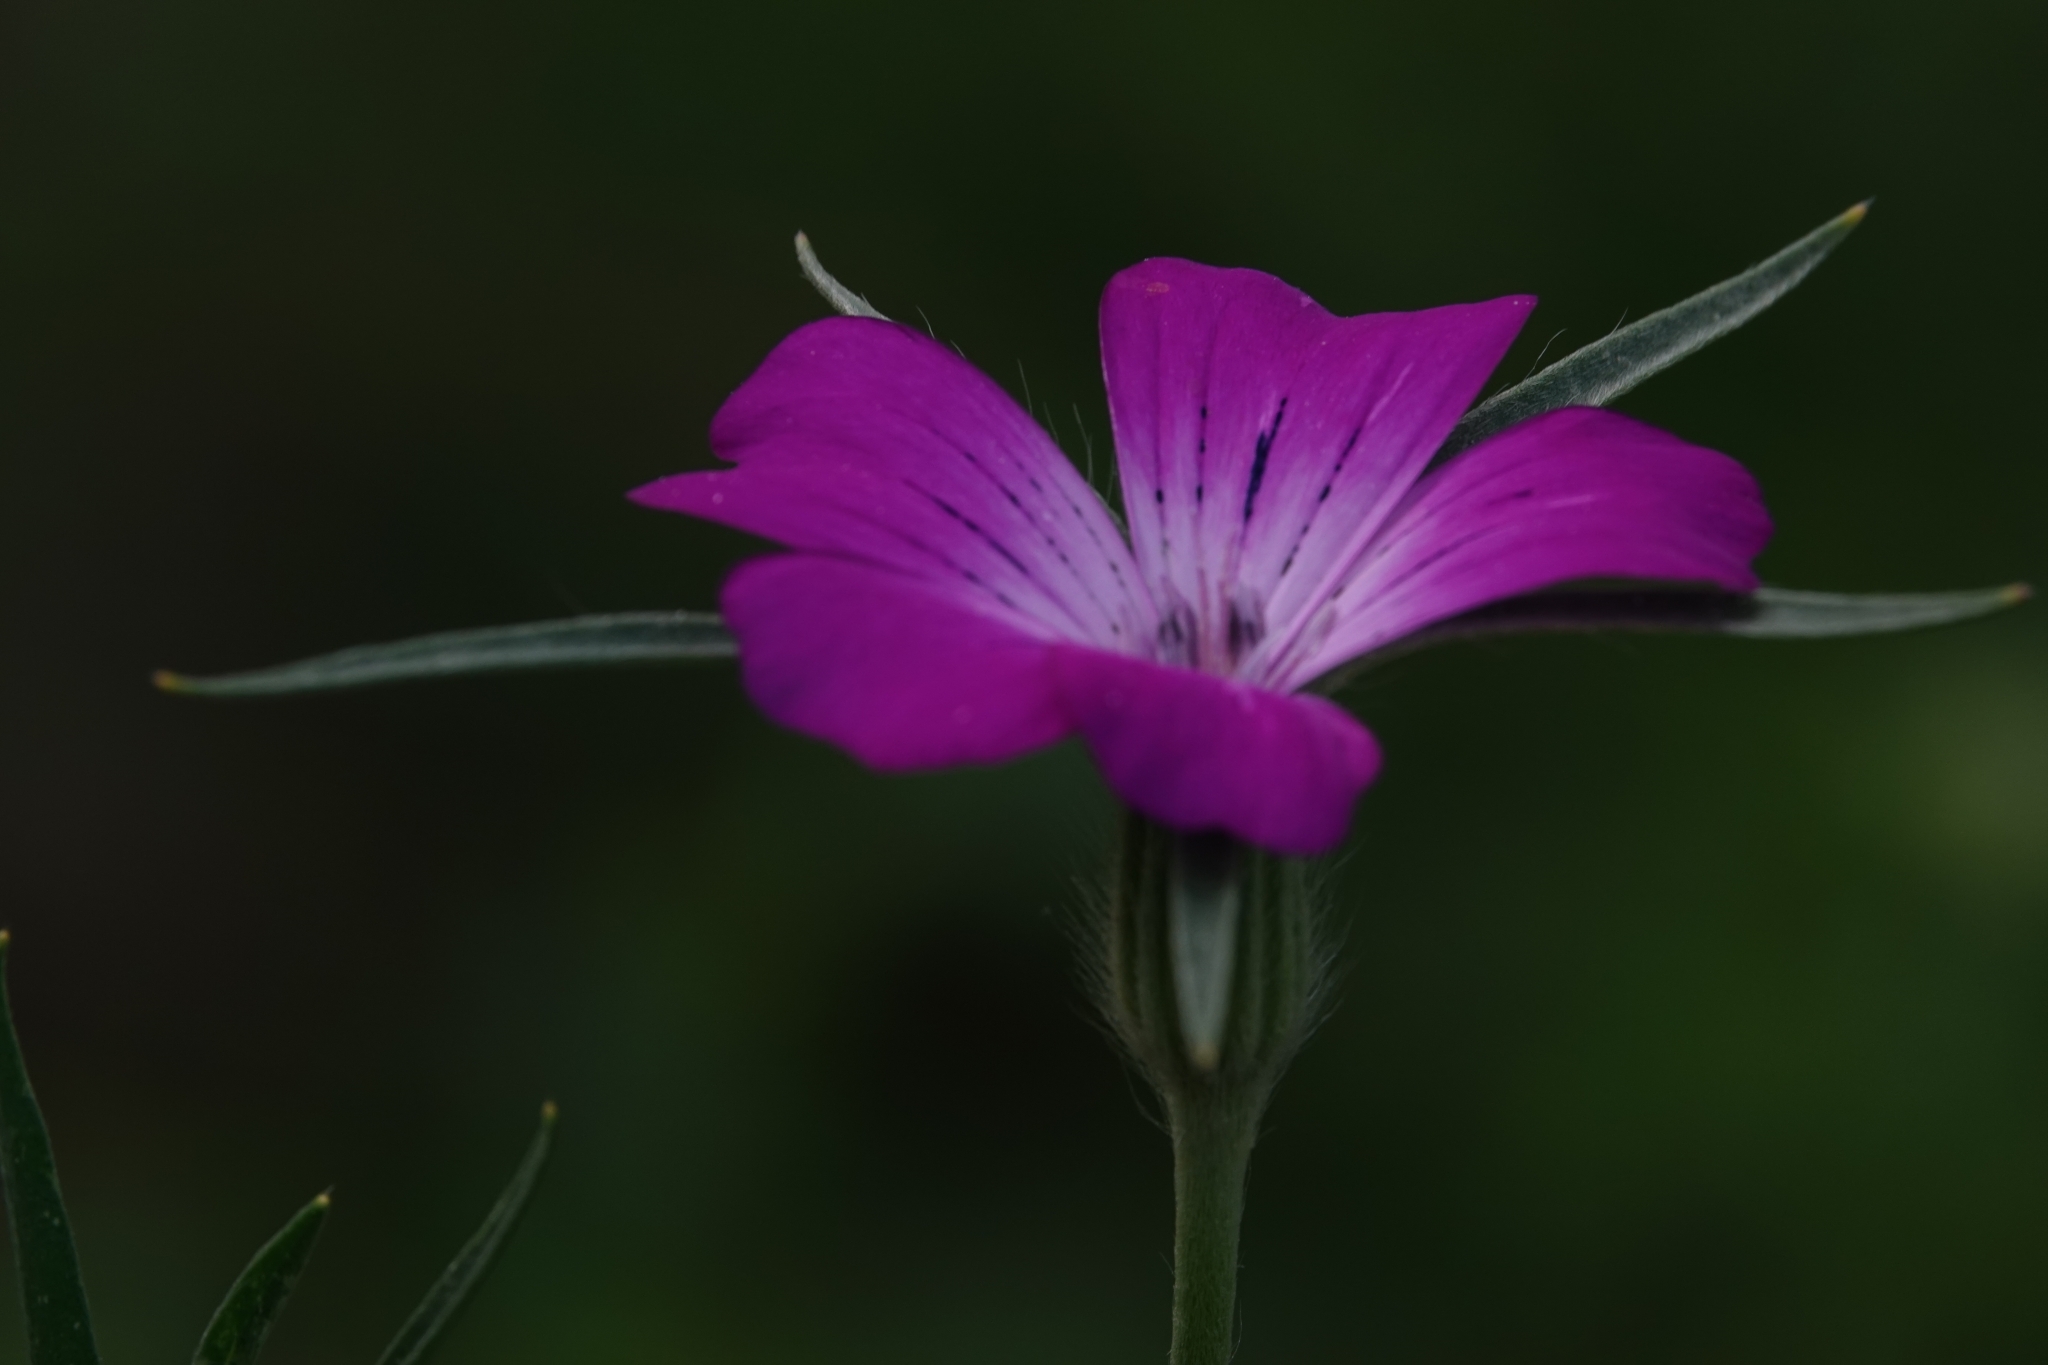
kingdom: Plantae
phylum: Tracheophyta
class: Magnoliopsida
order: Caryophyllales
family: Caryophyllaceae
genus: Agrostemma
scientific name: Agrostemma githago
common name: Common corncockle
